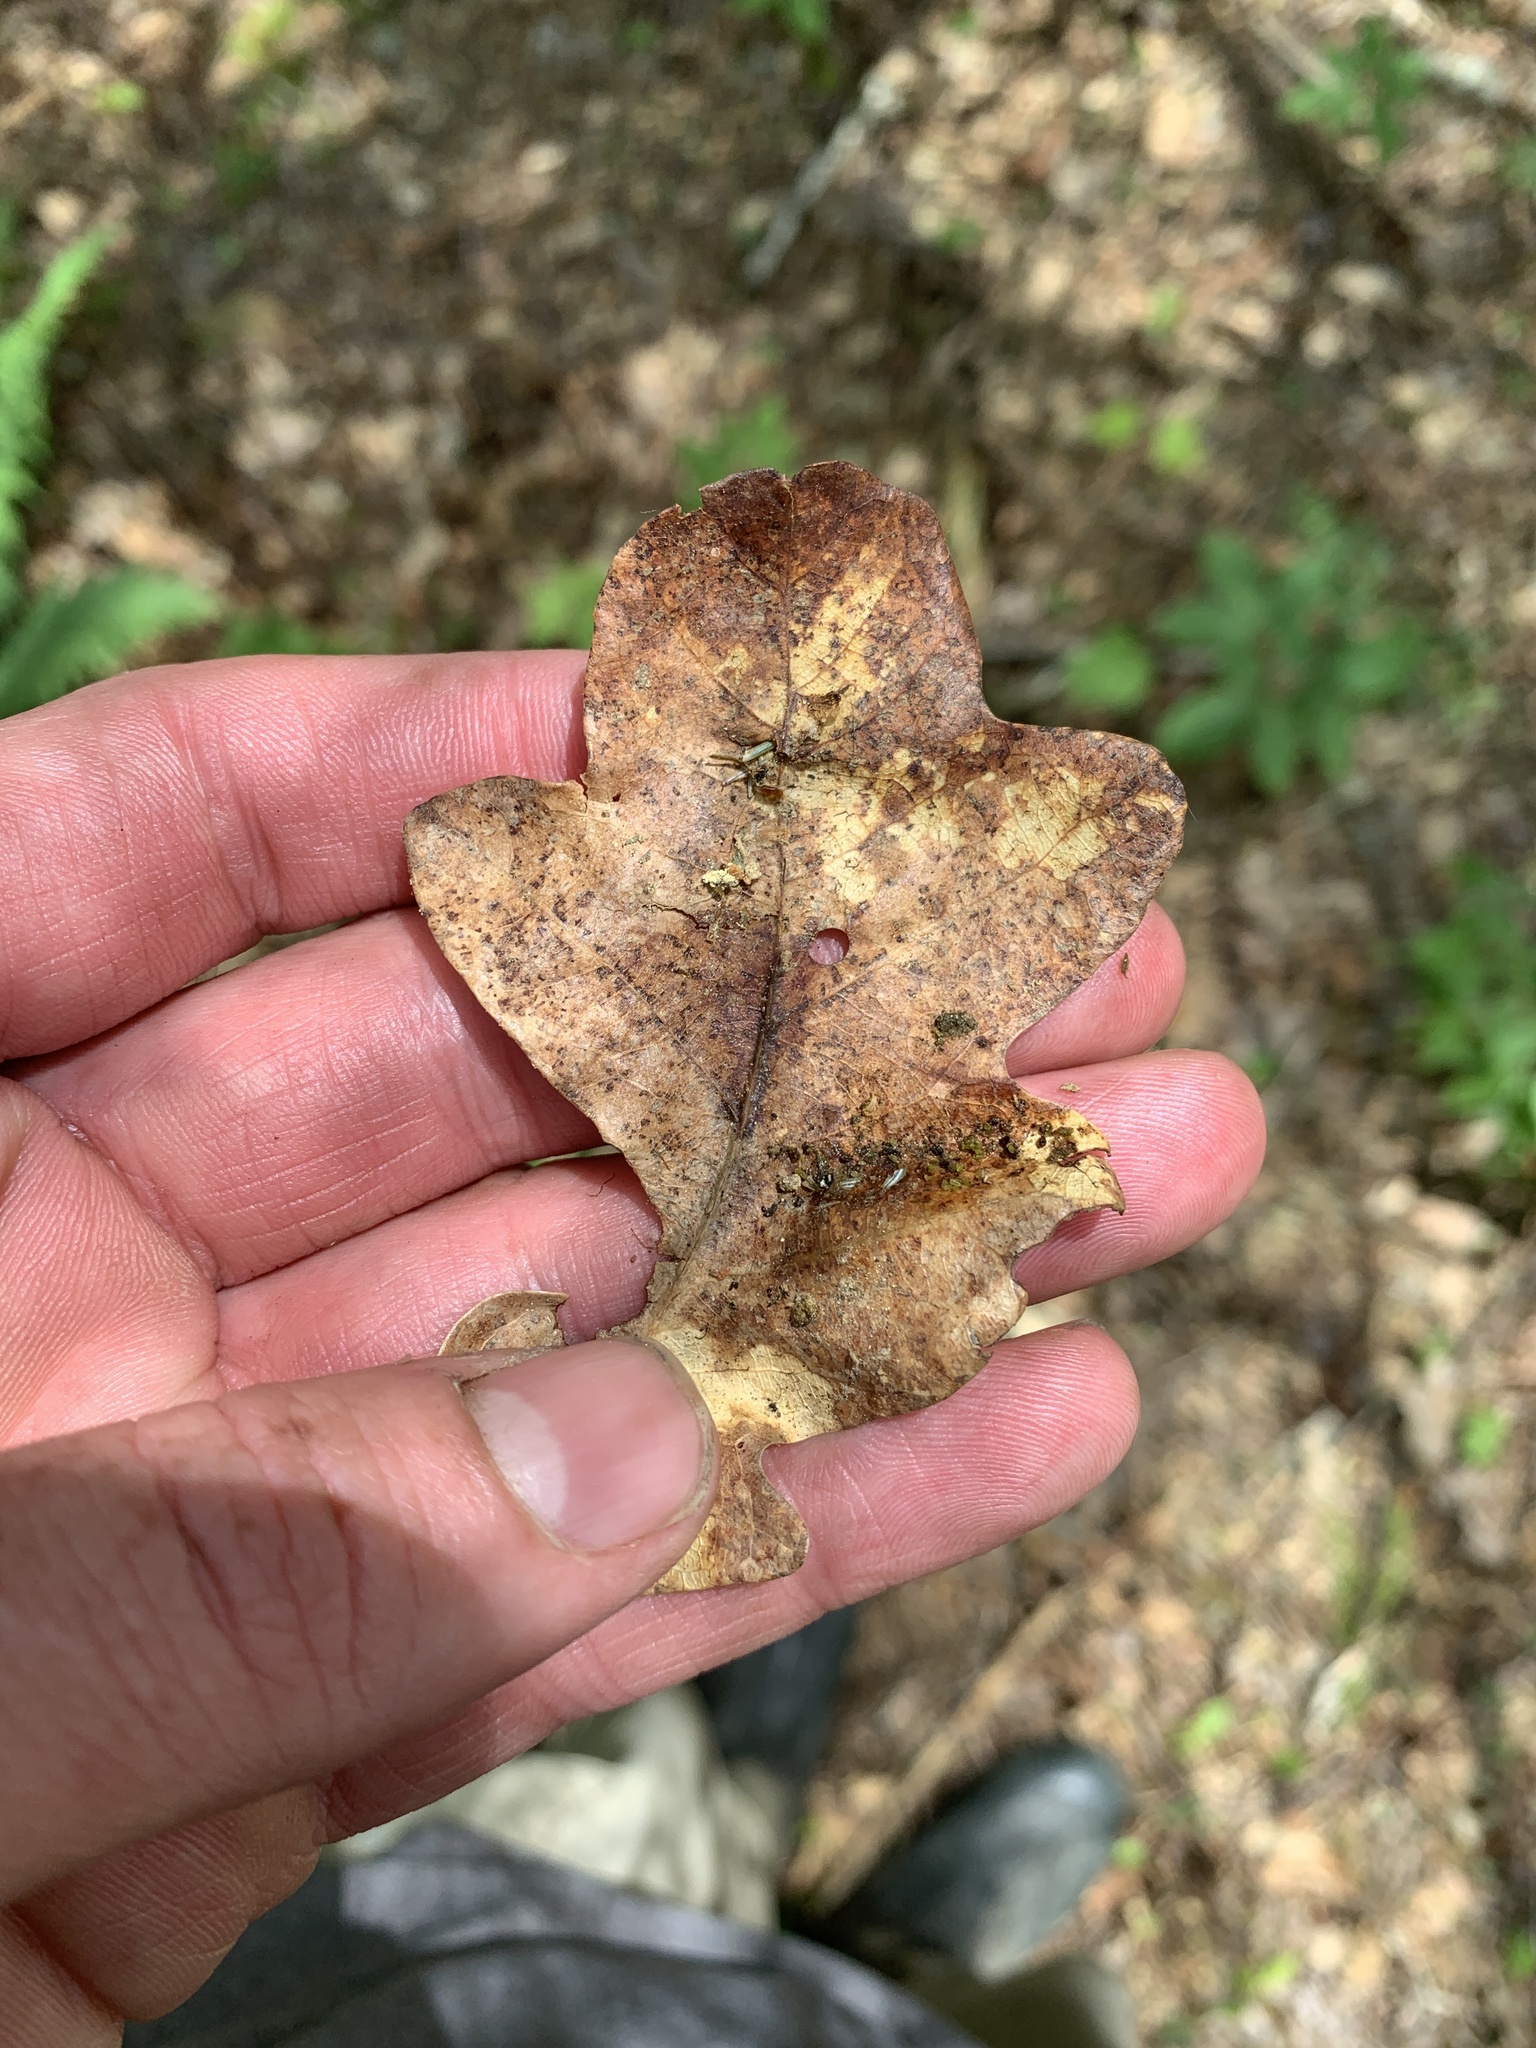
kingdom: Plantae
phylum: Tracheophyta
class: Magnoliopsida
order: Fagales
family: Fagaceae
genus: Quercus
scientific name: Quercus alba
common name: White oak
